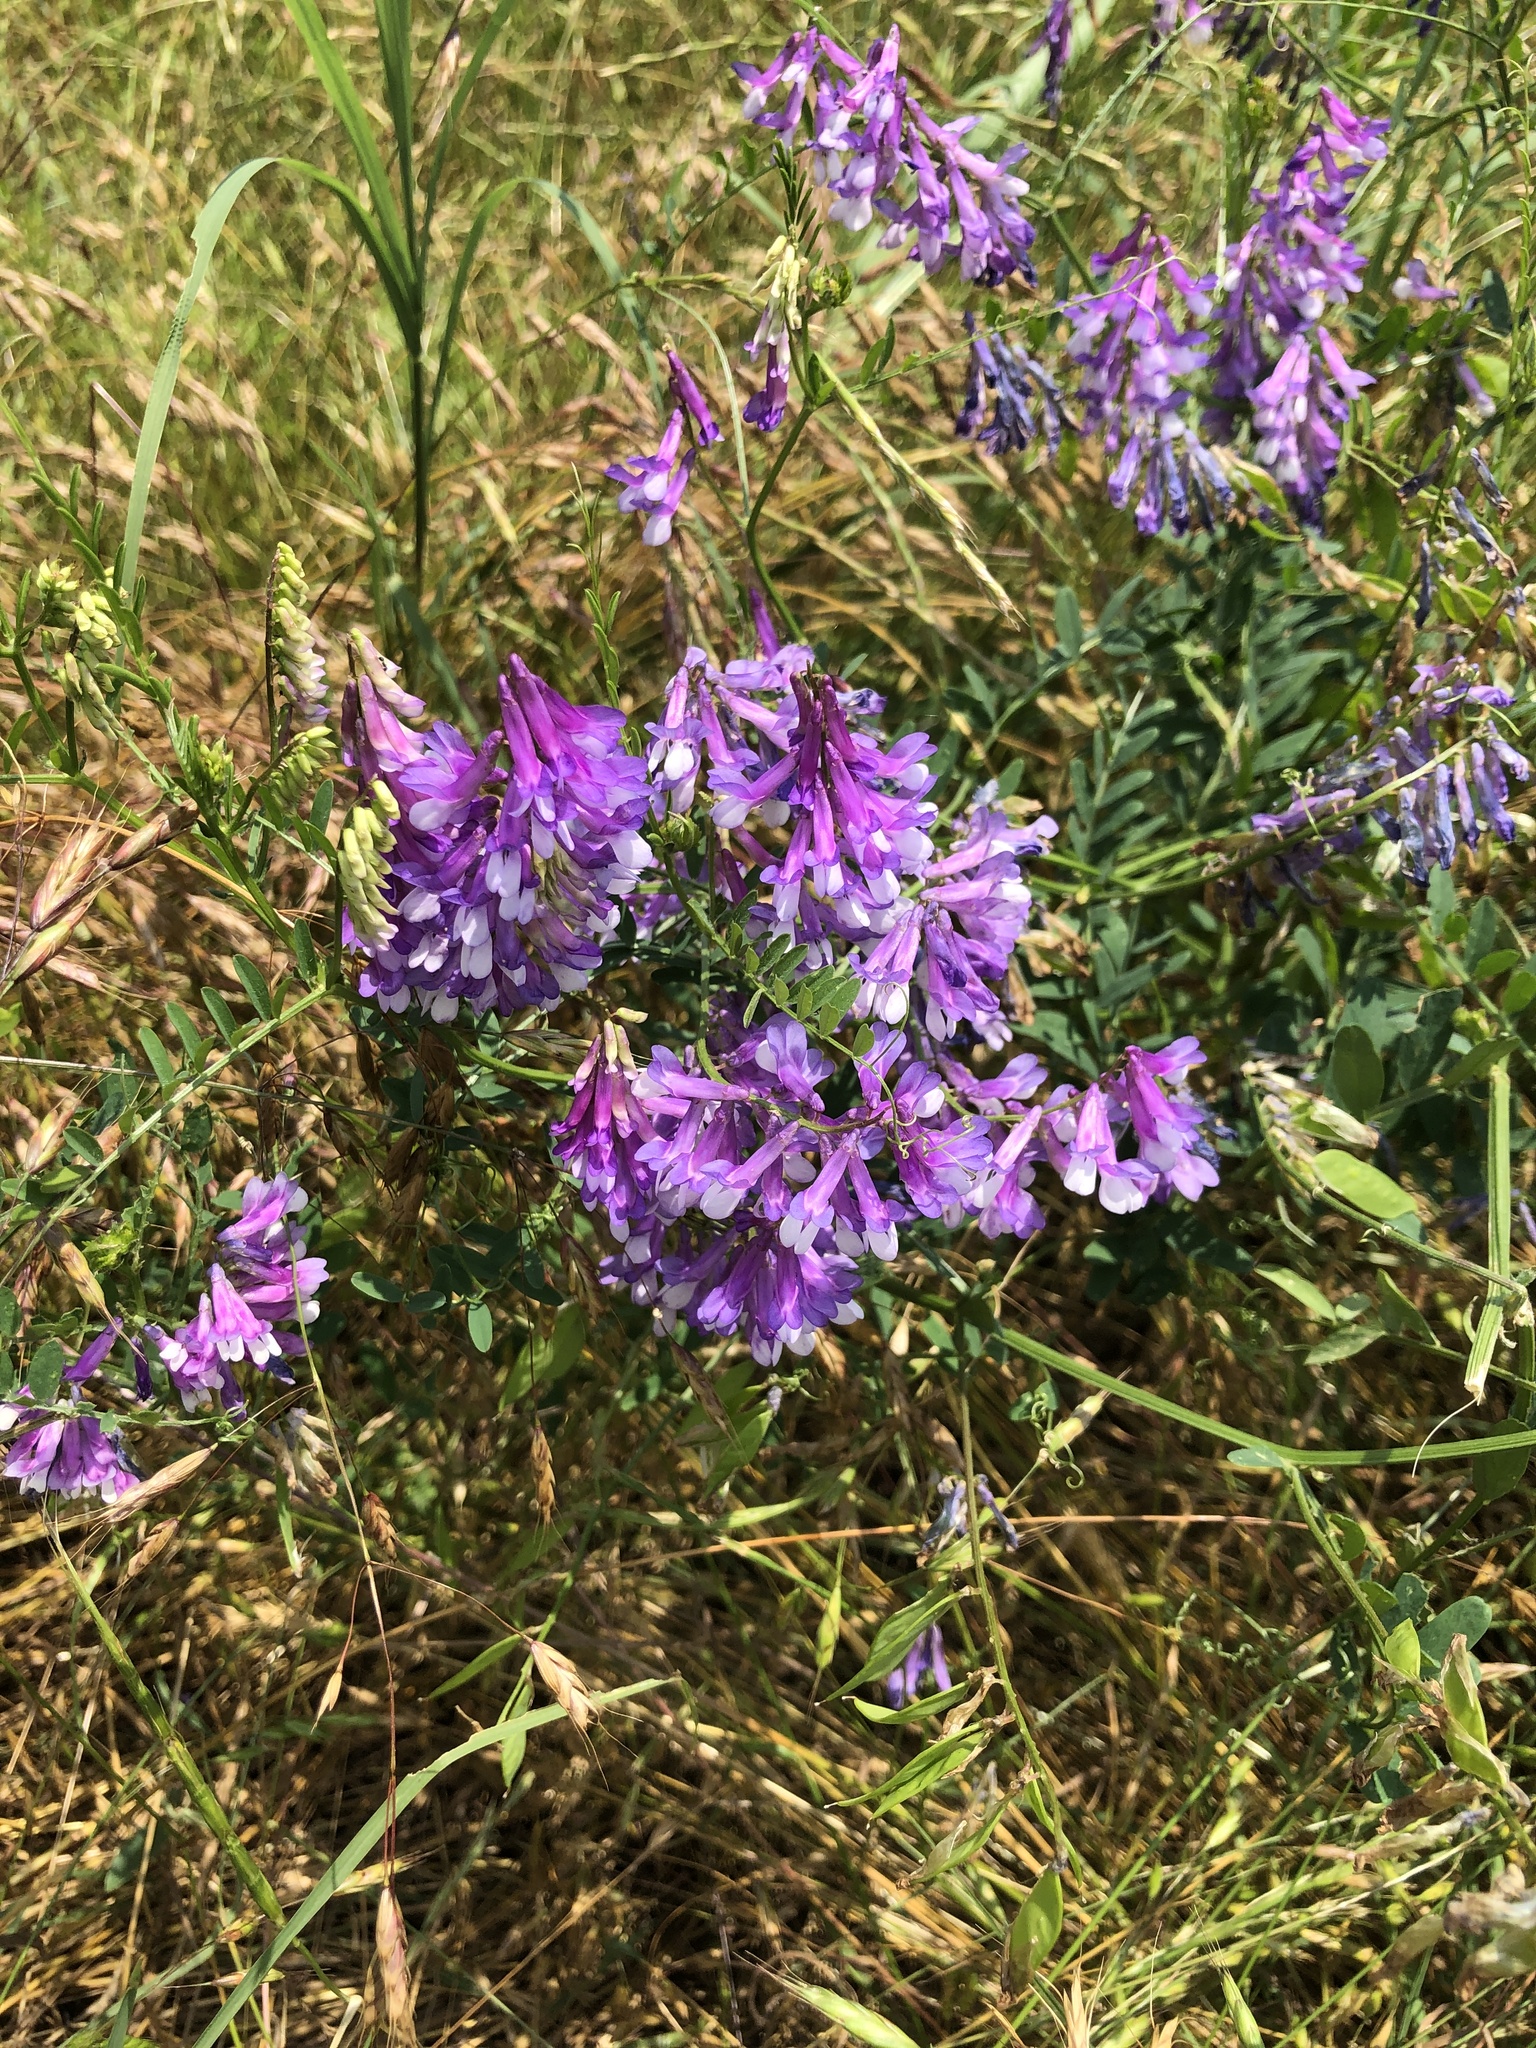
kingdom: Plantae
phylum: Tracheophyta
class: Magnoliopsida
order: Fabales
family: Fabaceae
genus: Vicia
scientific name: Vicia villosa
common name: Fodder vetch
